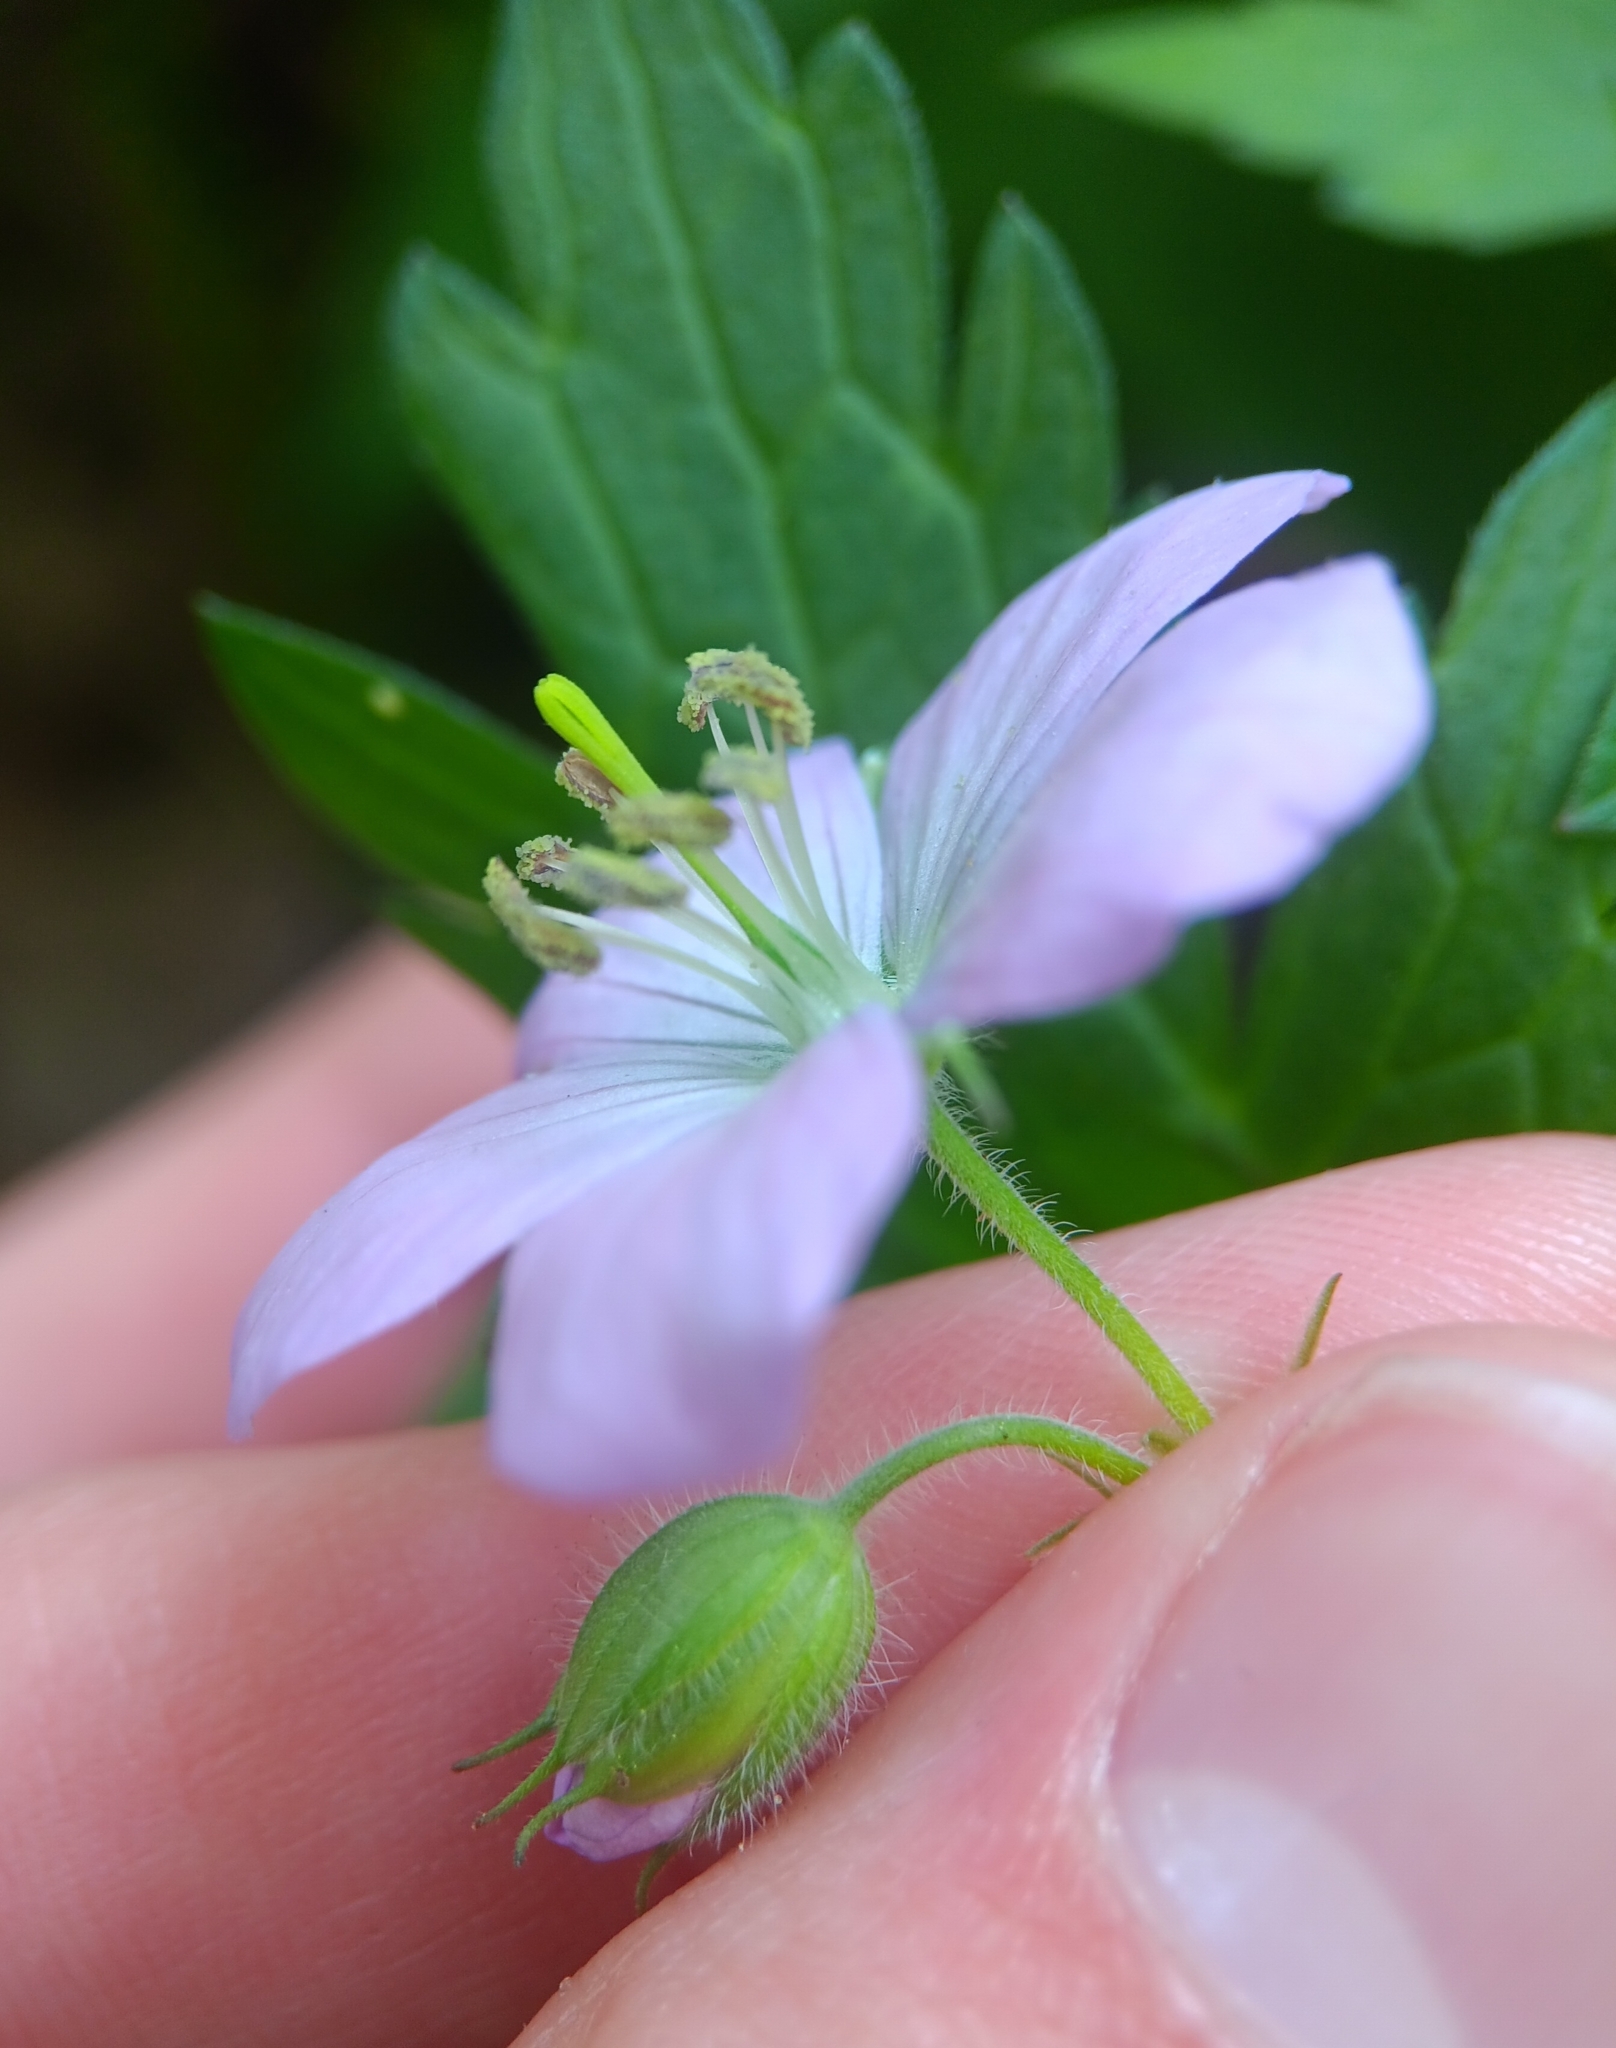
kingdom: Plantae
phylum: Tracheophyta
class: Magnoliopsida
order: Geraniales
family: Geraniaceae
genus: Geranium
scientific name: Geranium maculatum
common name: Spotted geranium
